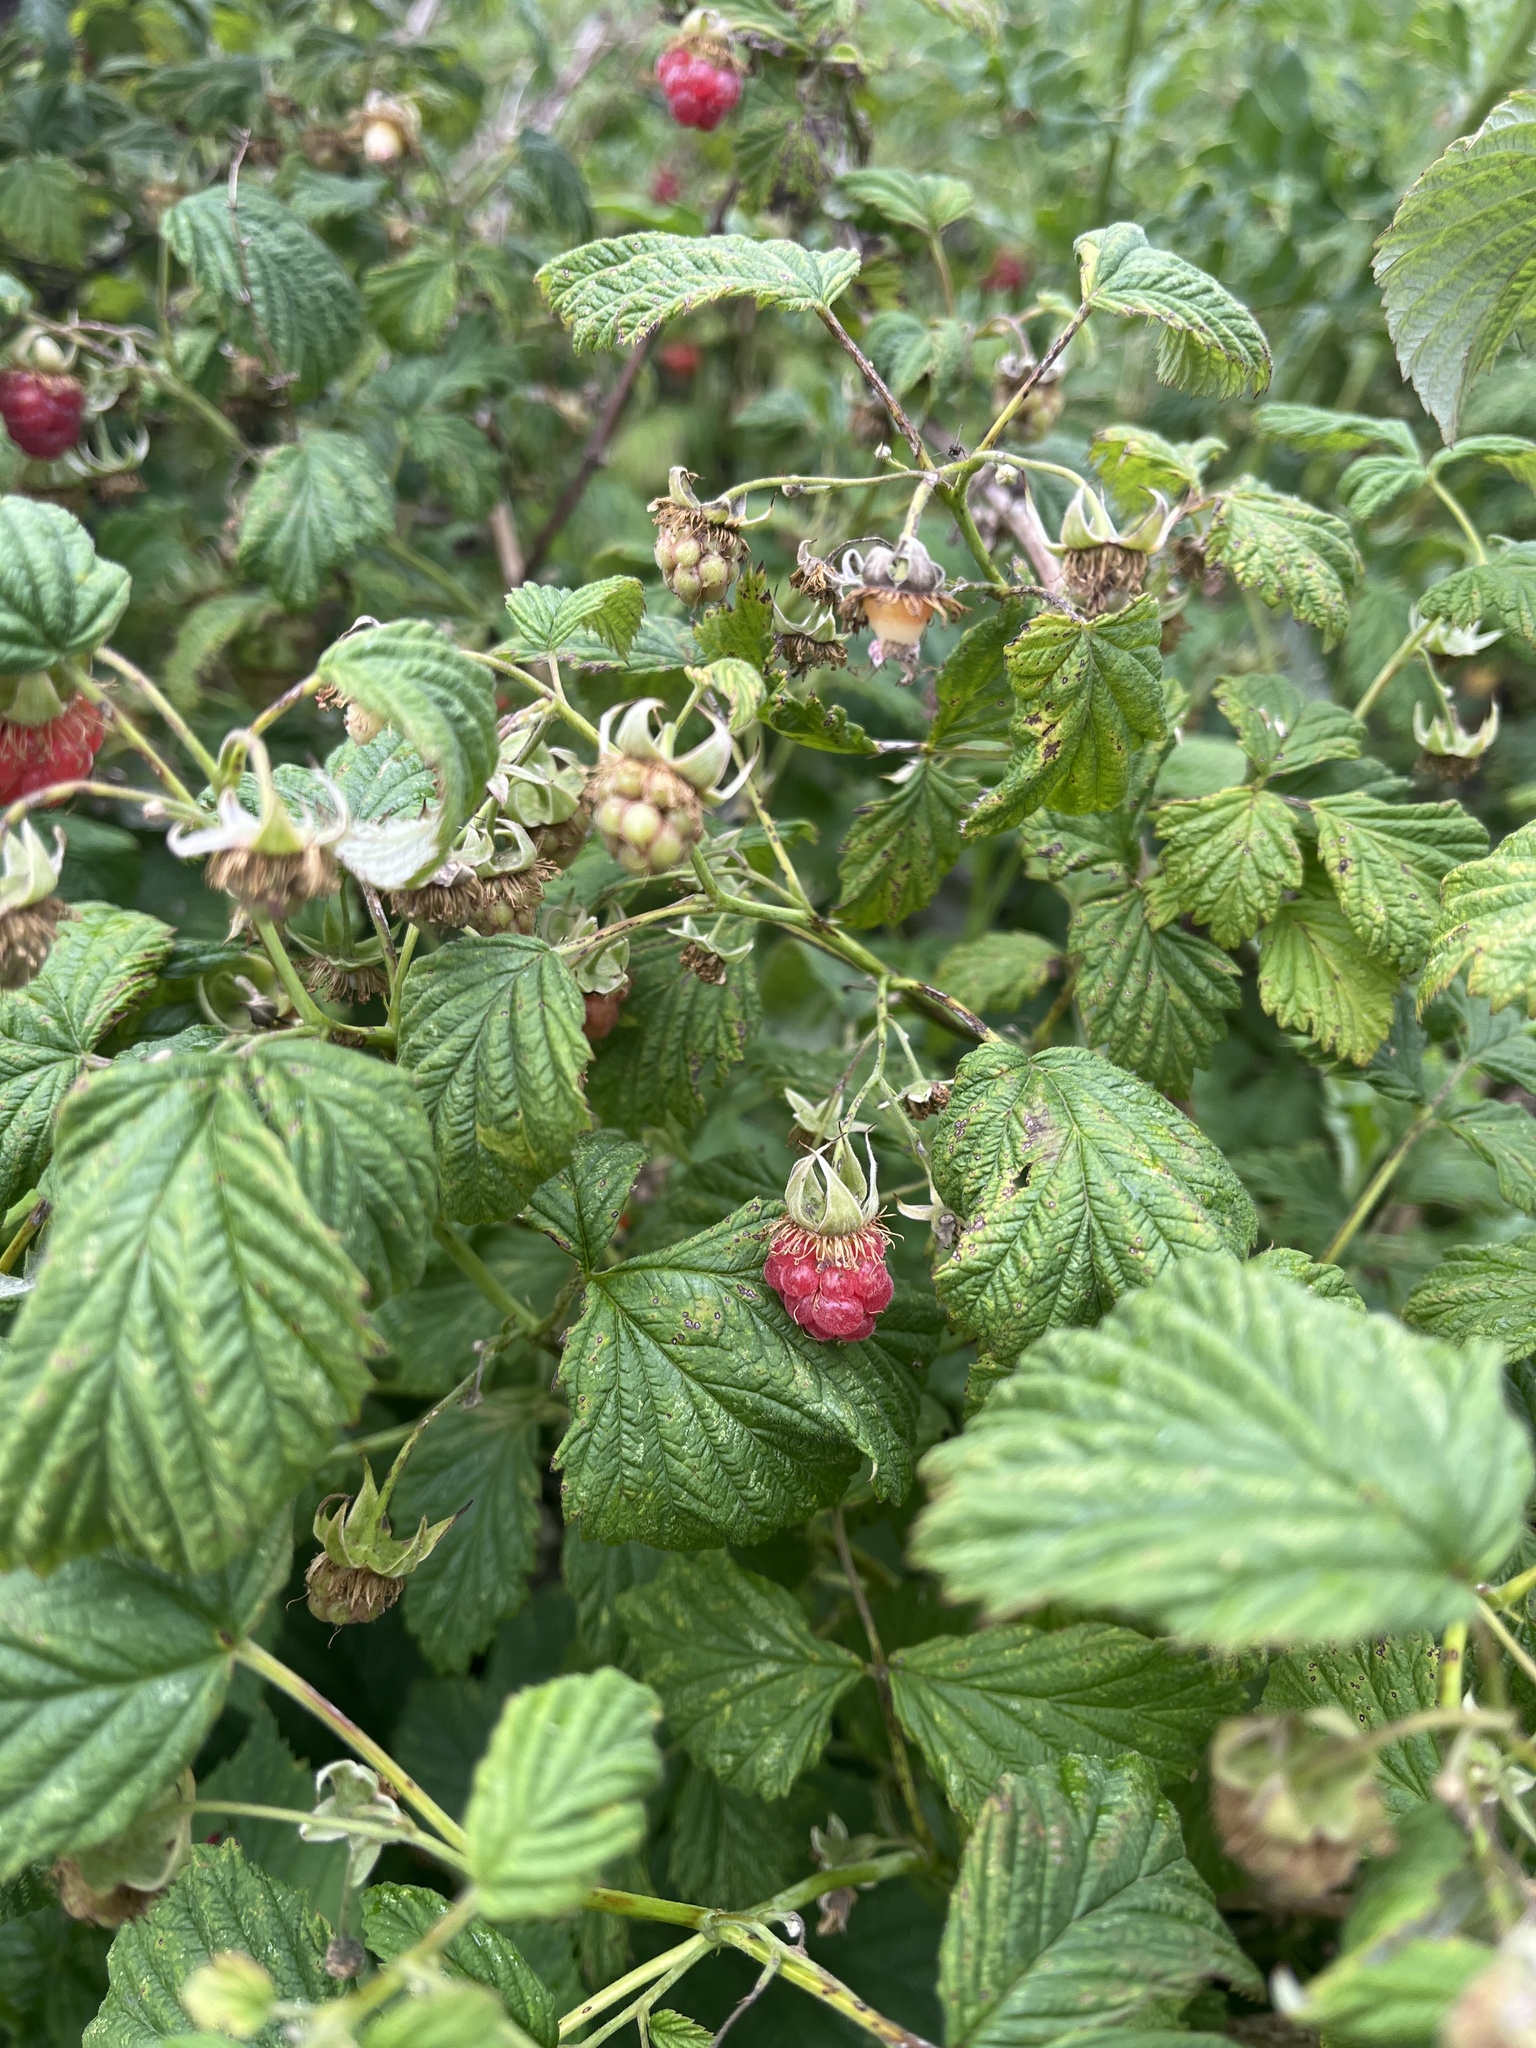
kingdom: Plantae
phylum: Tracheophyta
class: Magnoliopsida
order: Rosales
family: Rosaceae
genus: Rubus
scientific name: Rubus idaeus
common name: Raspberry
